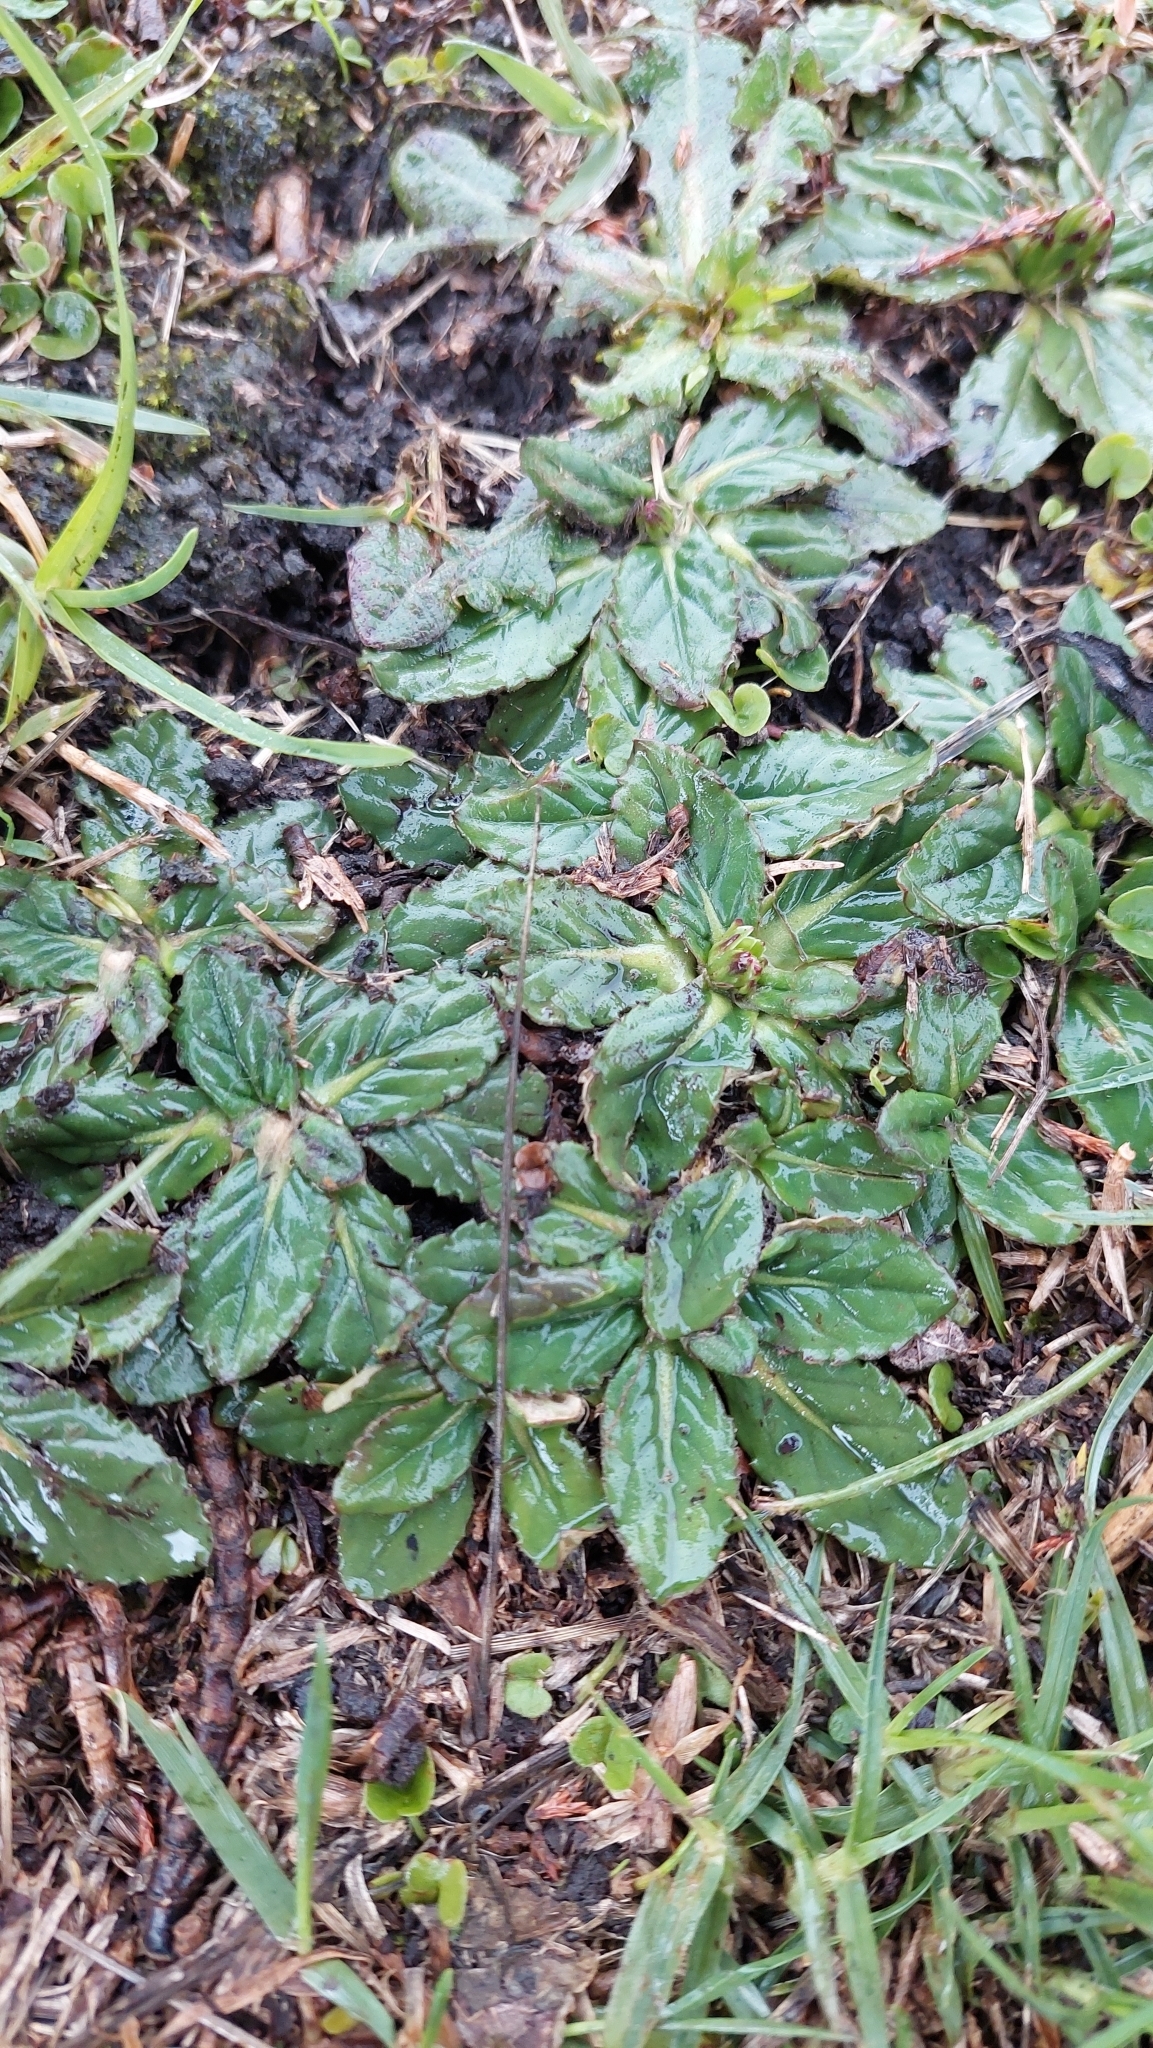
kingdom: Plantae
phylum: Tracheophyta
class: Magnoliopsida
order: Asterales
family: Asteraceae
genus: Chaptalia
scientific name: Chaptalia exscapa
